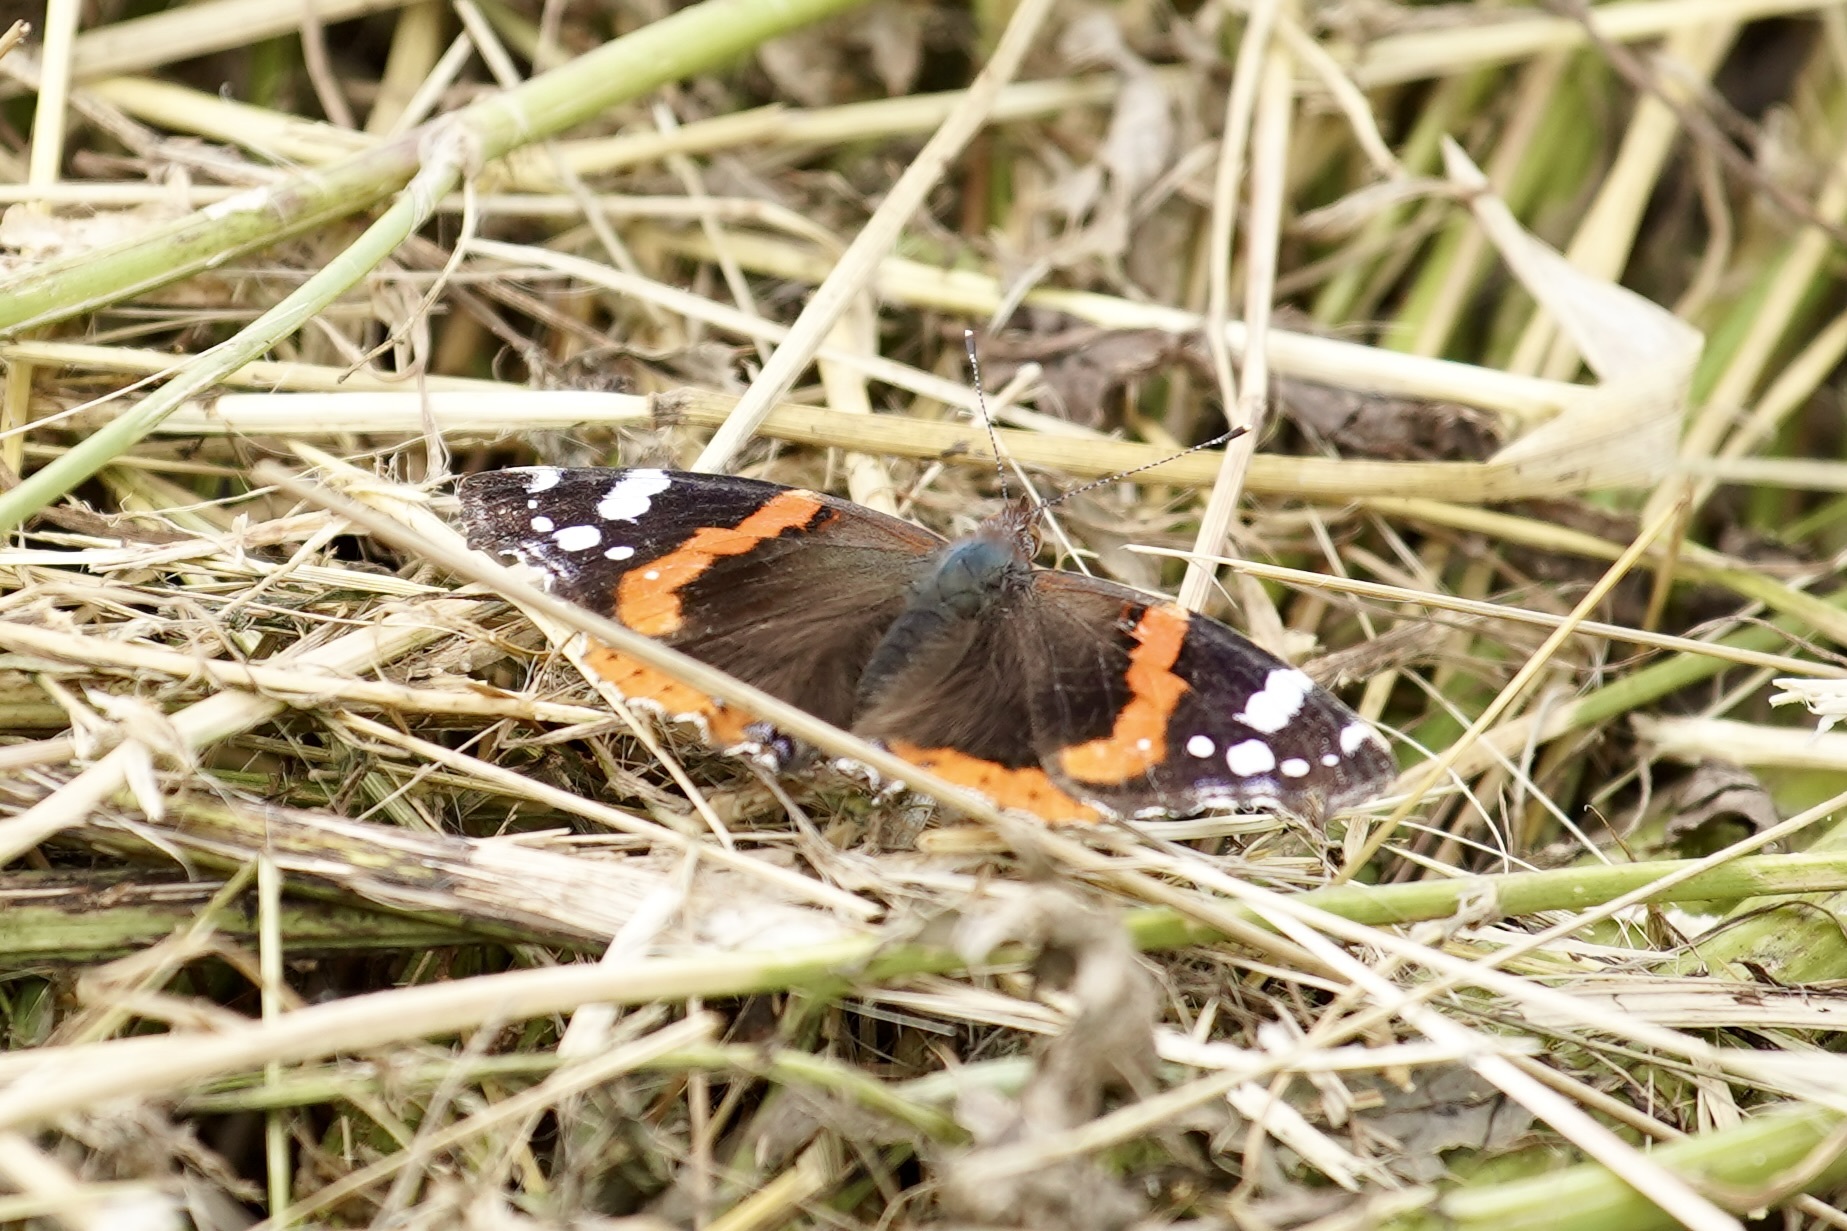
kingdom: Animalia
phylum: Arthropoda
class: Insecta
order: Lepidoptera
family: Nymphalidae
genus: Vanessa
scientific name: Vanessa atalanta
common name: Red admiral
